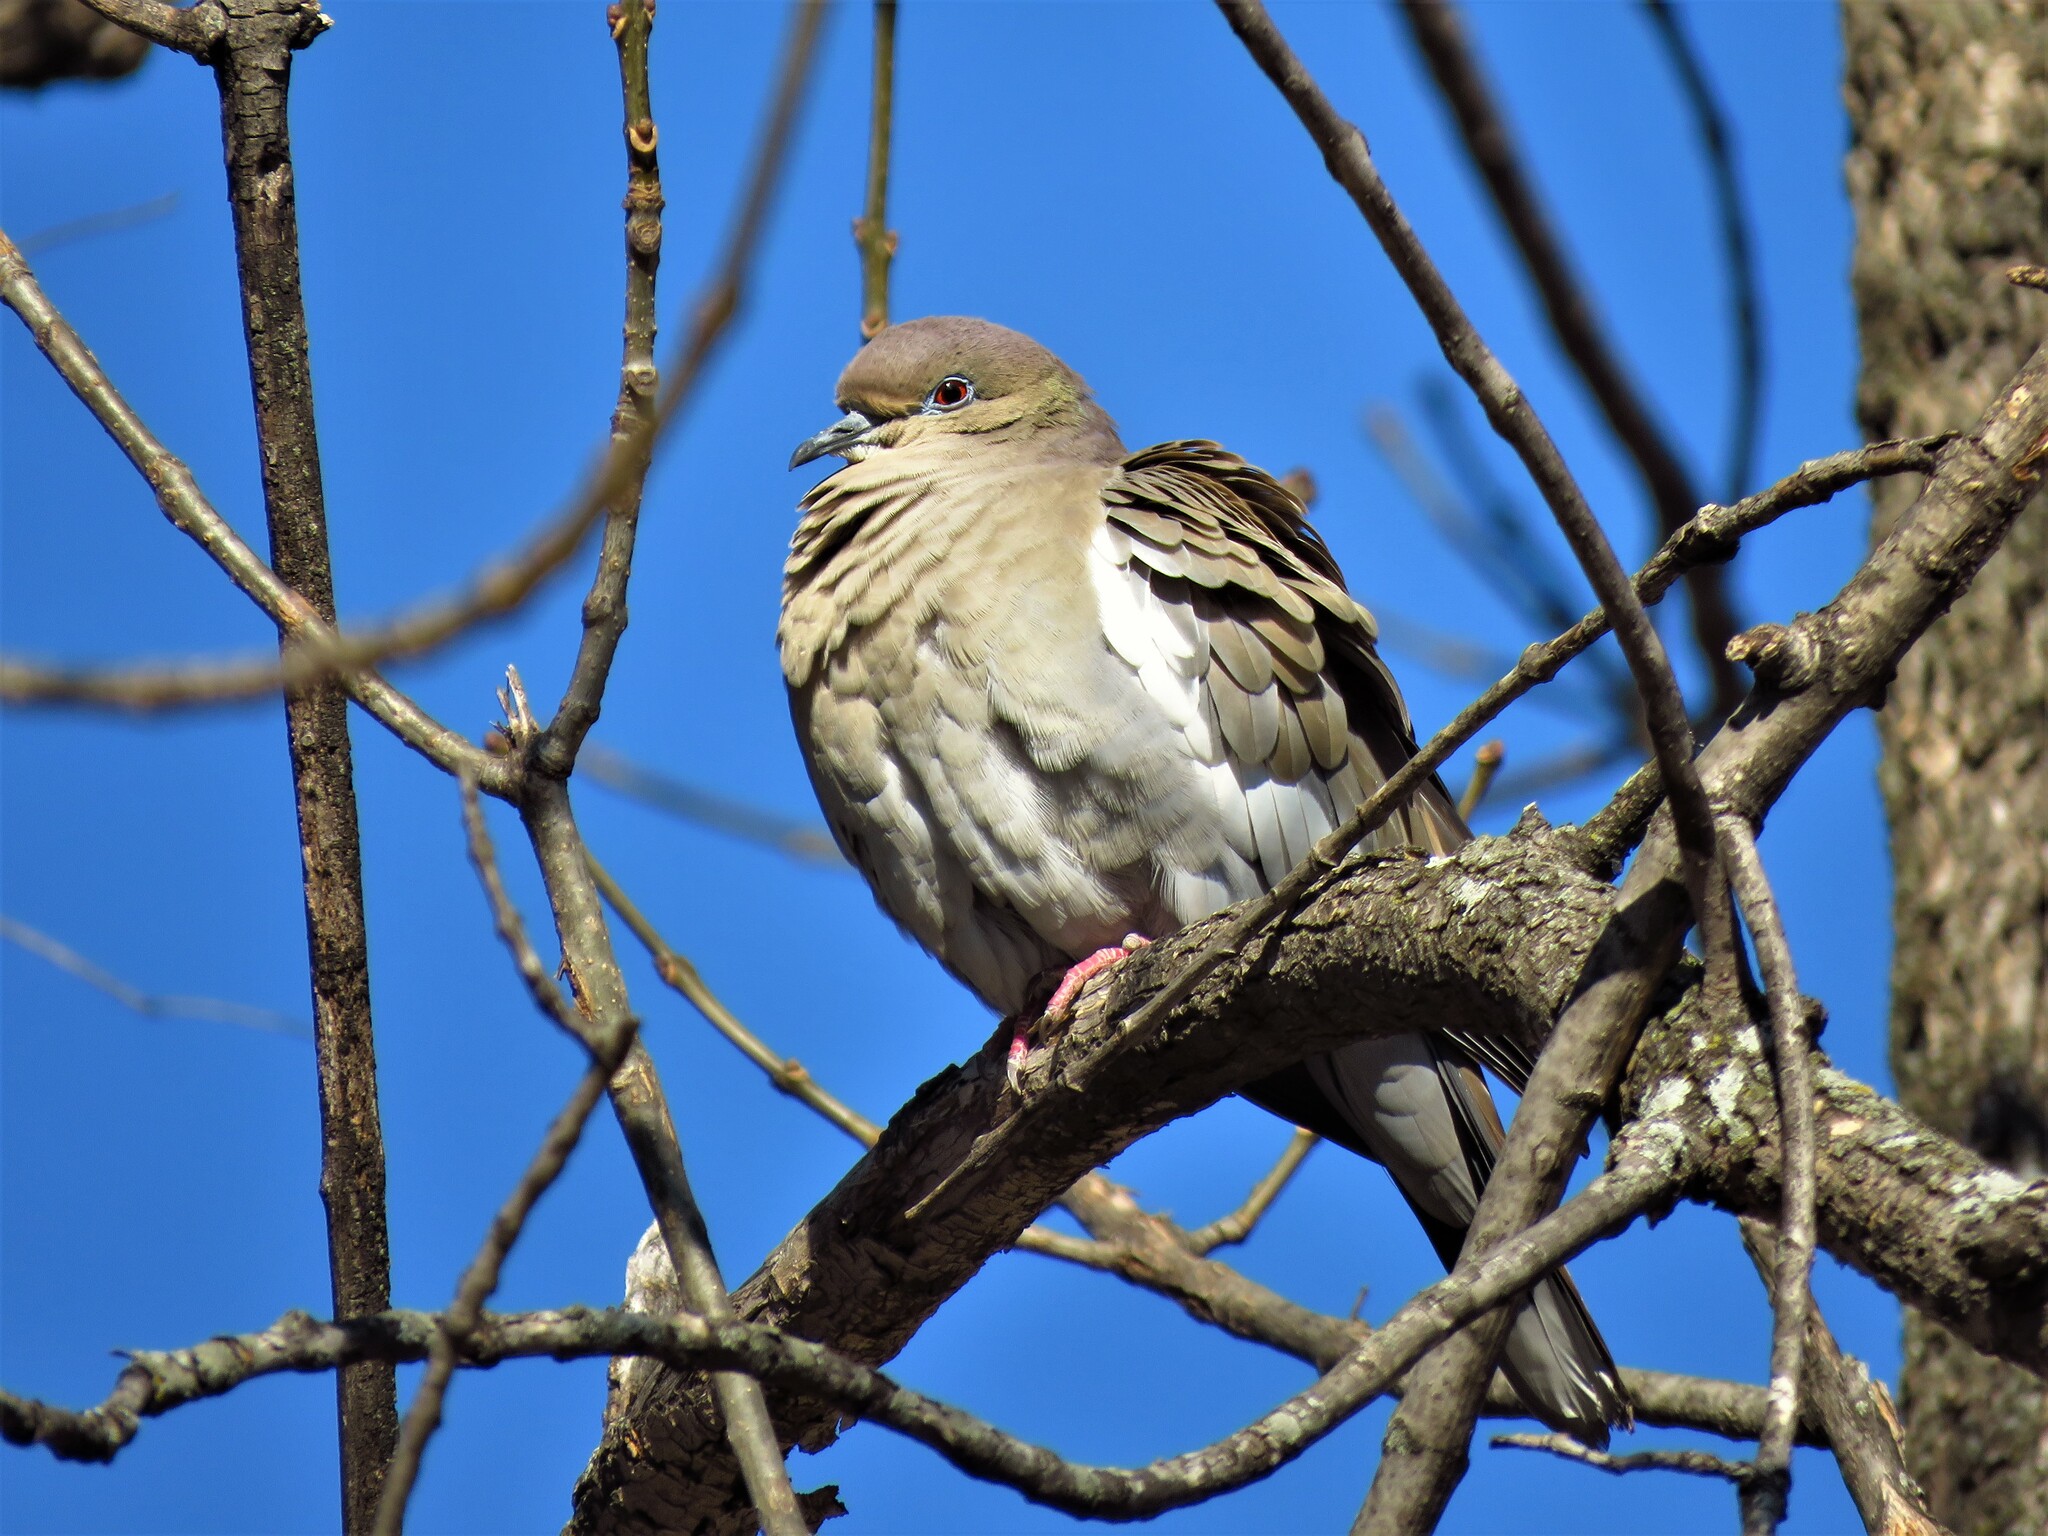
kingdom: Animalia
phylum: Chordata
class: Aves
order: Columbiformes
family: Columbidae
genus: Zenaida
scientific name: Zenaida asiatica
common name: White-winged dove
